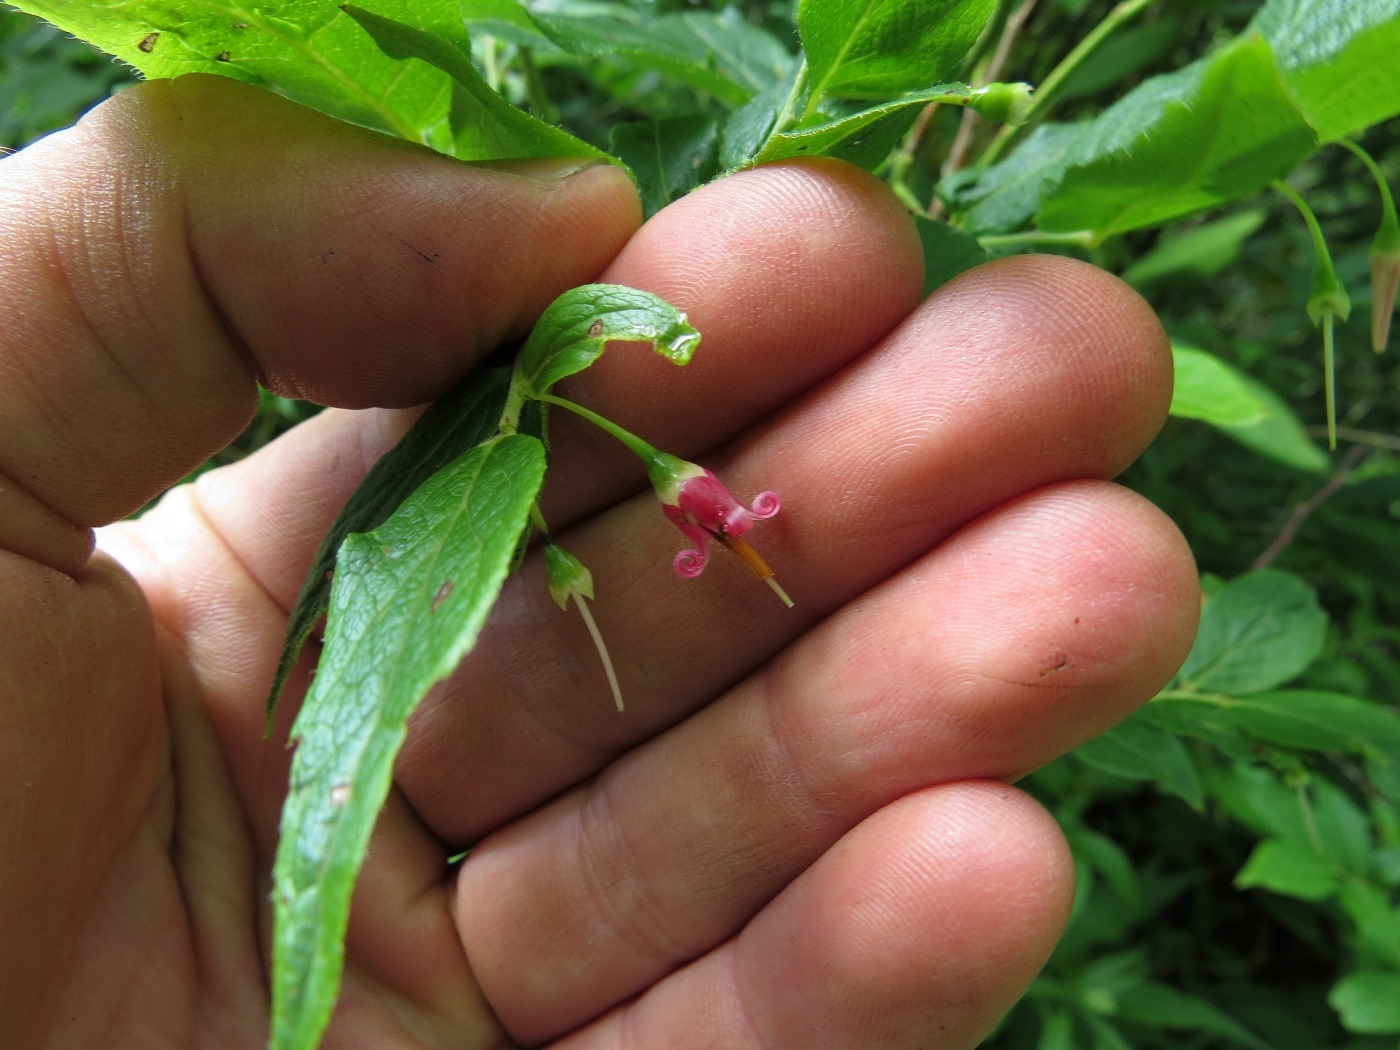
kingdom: Plantae
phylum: Tracheophyta
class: Magnoliopsida
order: Ericales
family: Ericaceae
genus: Vaccinium
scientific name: Vaccinium erythrocarpum
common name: Bearberry
